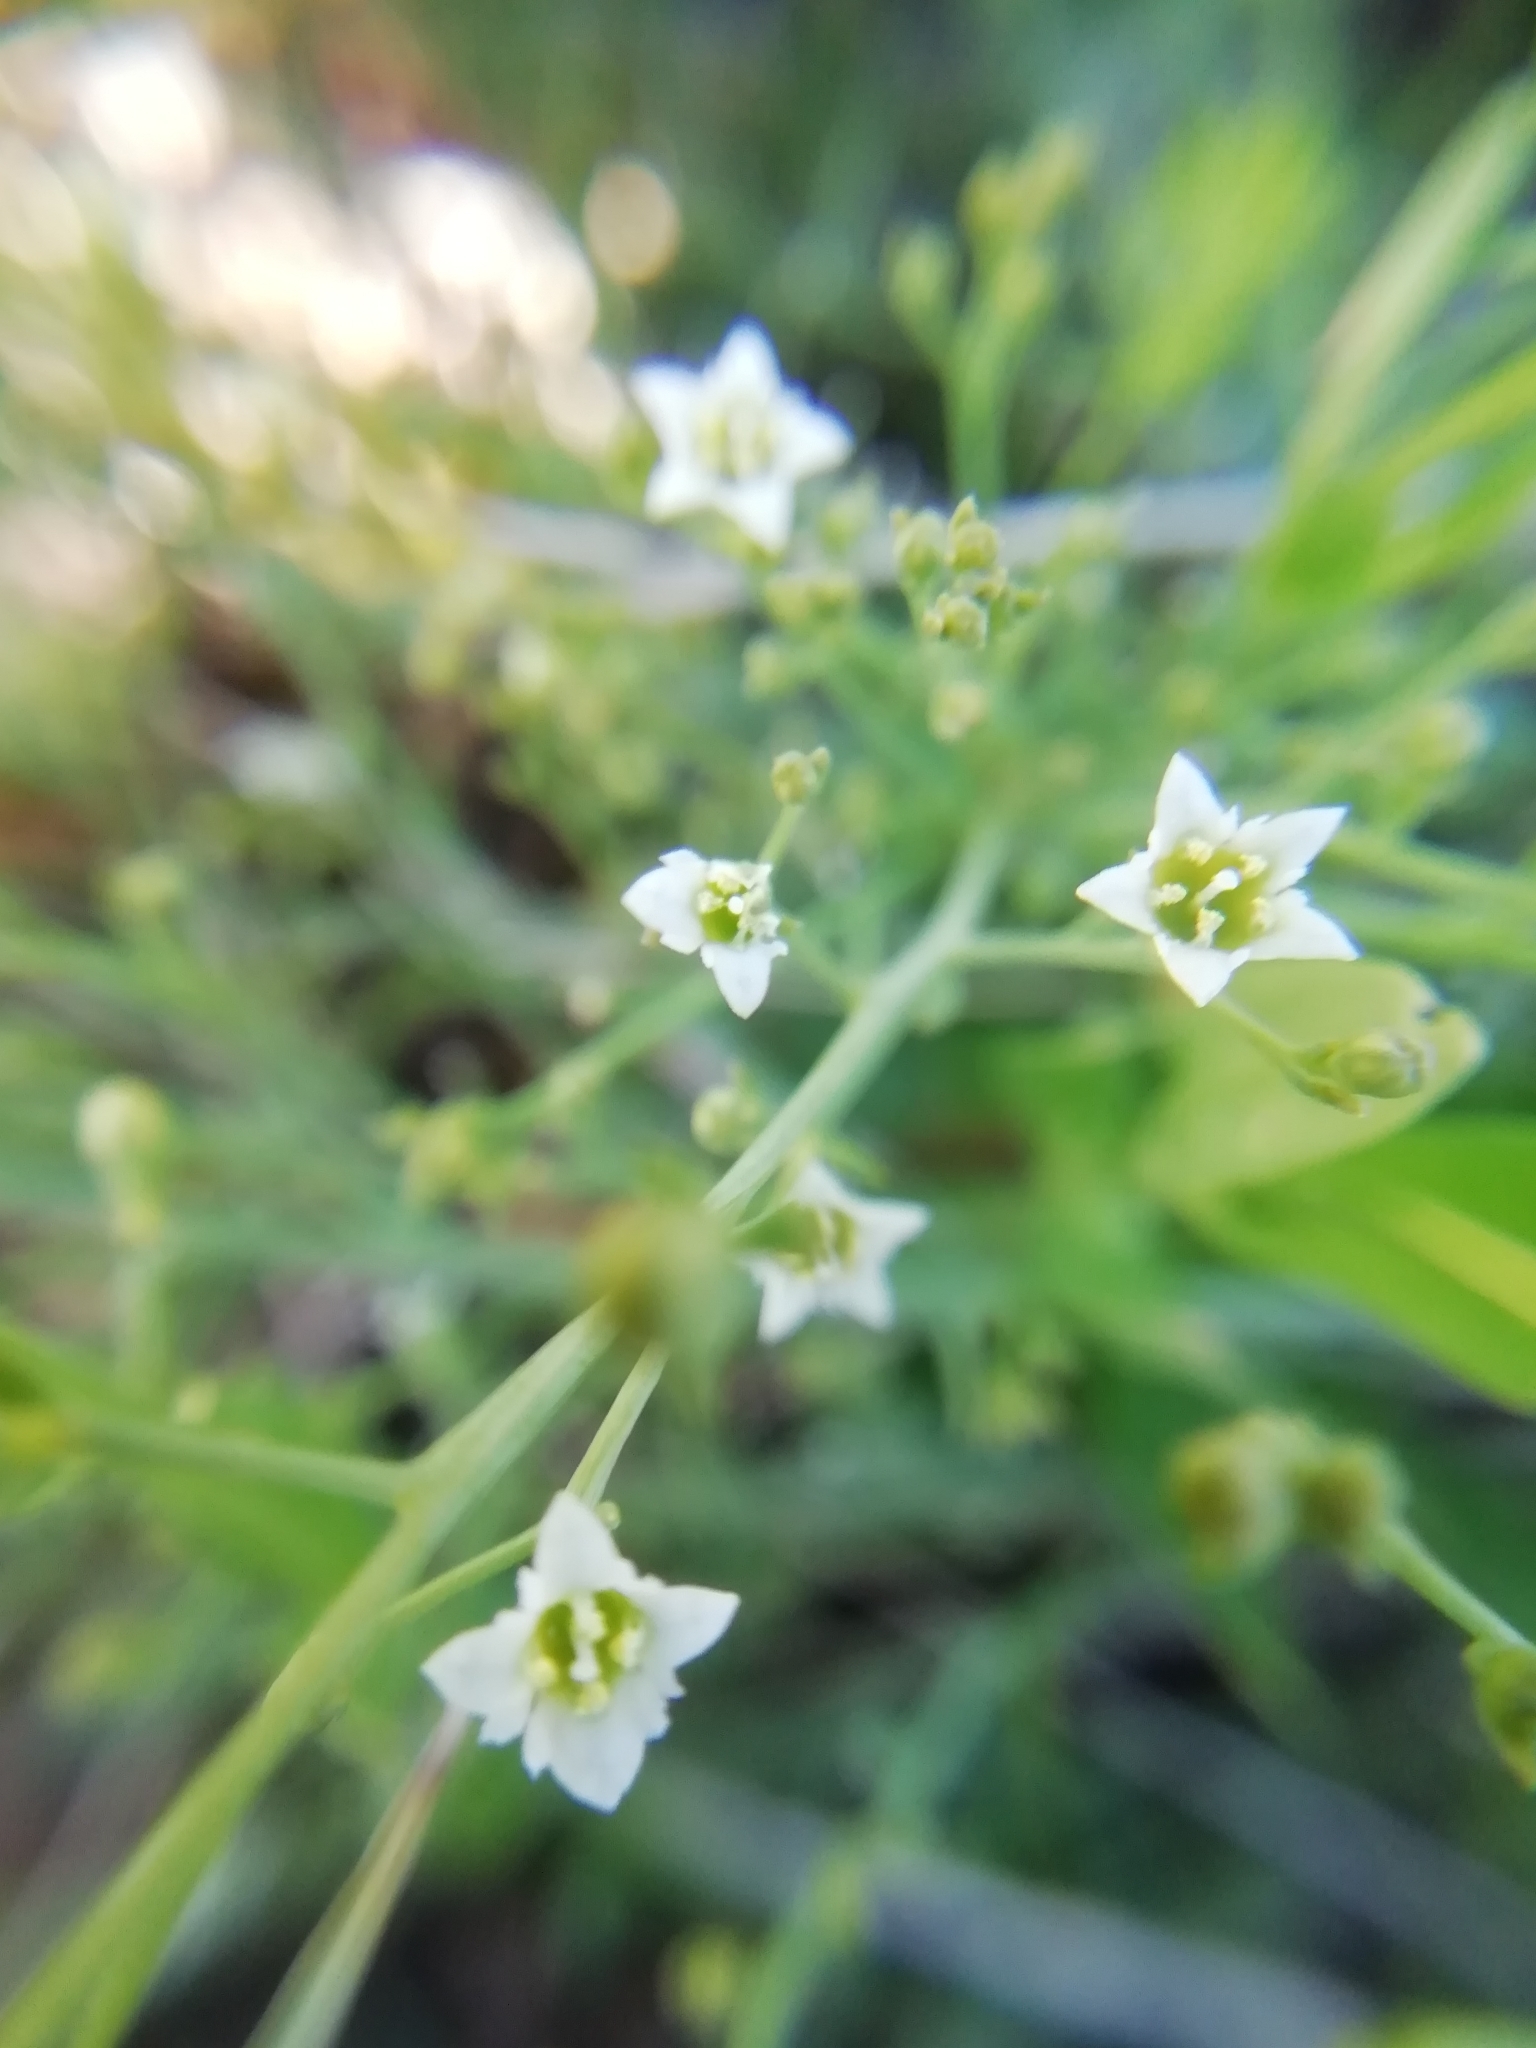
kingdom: Plantae
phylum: Tracheophyta
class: Magnoliopsida
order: Santalales
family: Thesiaceae
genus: Thesium
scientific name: Thesium divaricatum
